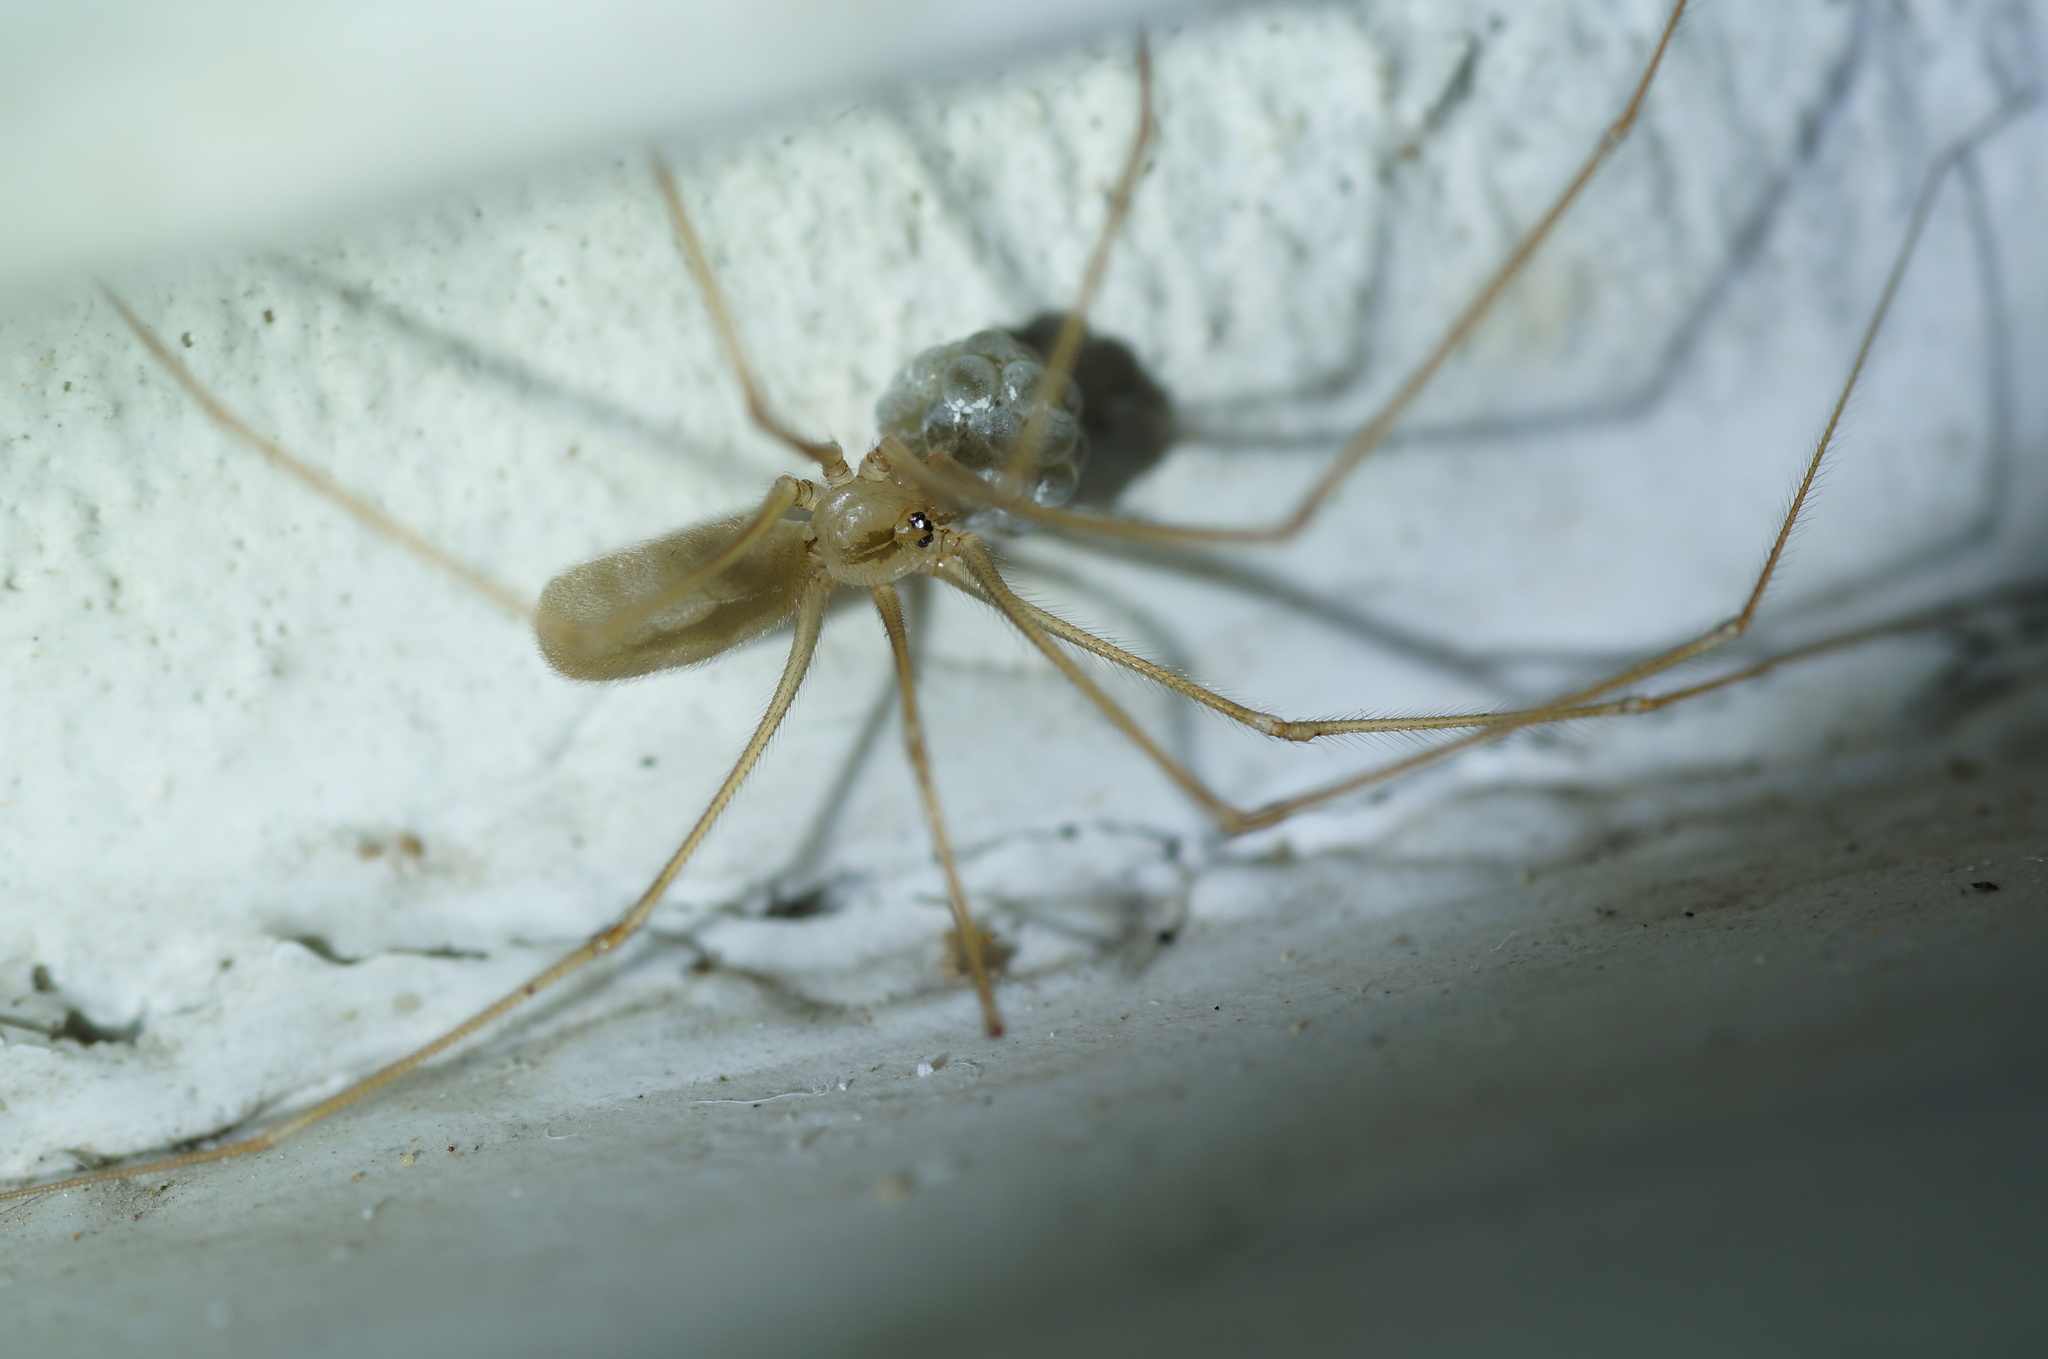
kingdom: Animalia
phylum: Arthropoda
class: Arachnida
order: Araneae
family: Pholcidae
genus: Pholcus
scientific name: Pholcus ponticus
